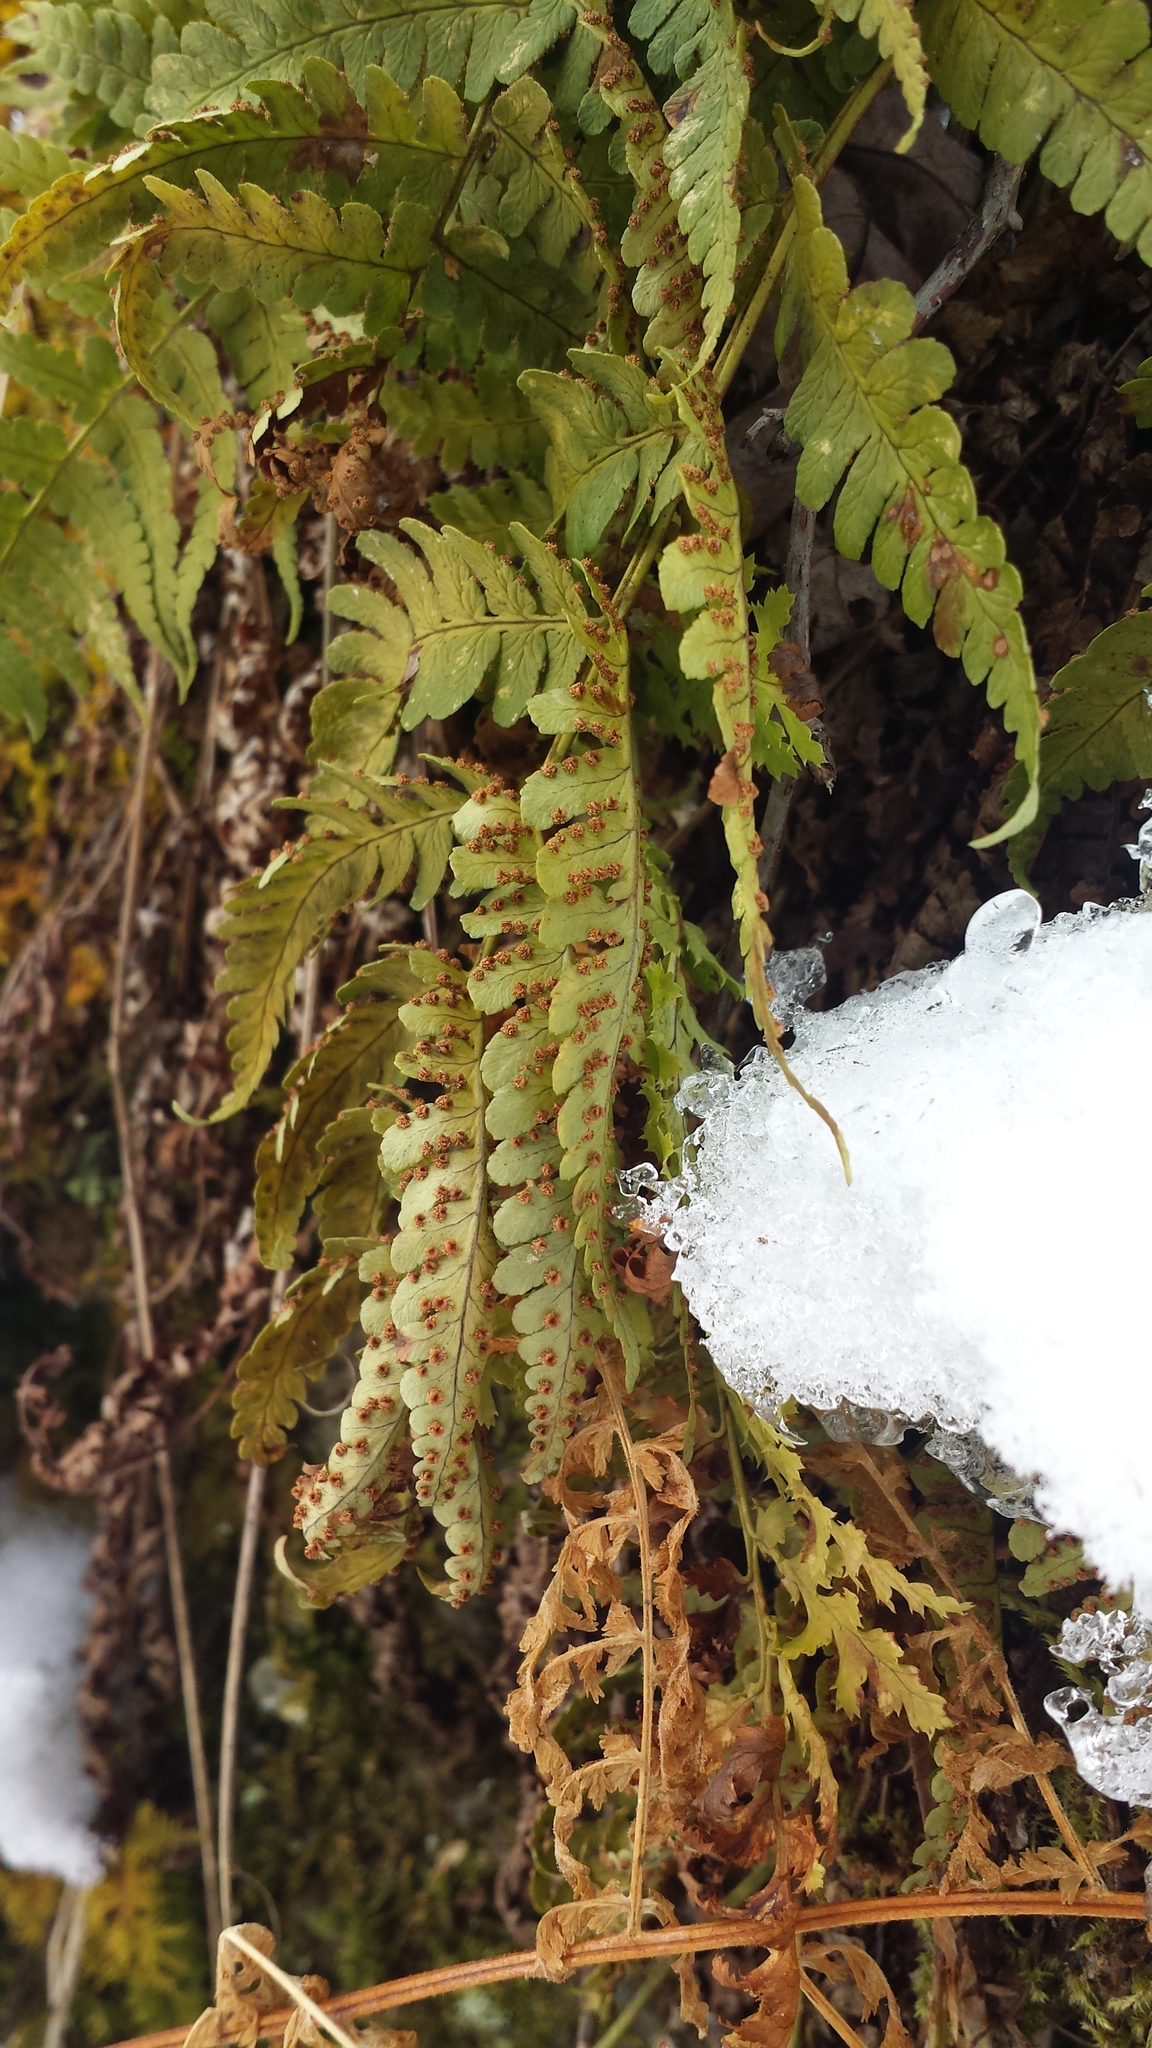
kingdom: Plantae
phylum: Tracheophyta
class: Polypodiopsida
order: Polypodiales
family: Dryopteridaceae
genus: Dryopteris
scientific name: Dryopteris marginalis
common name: Marginal wood fern
